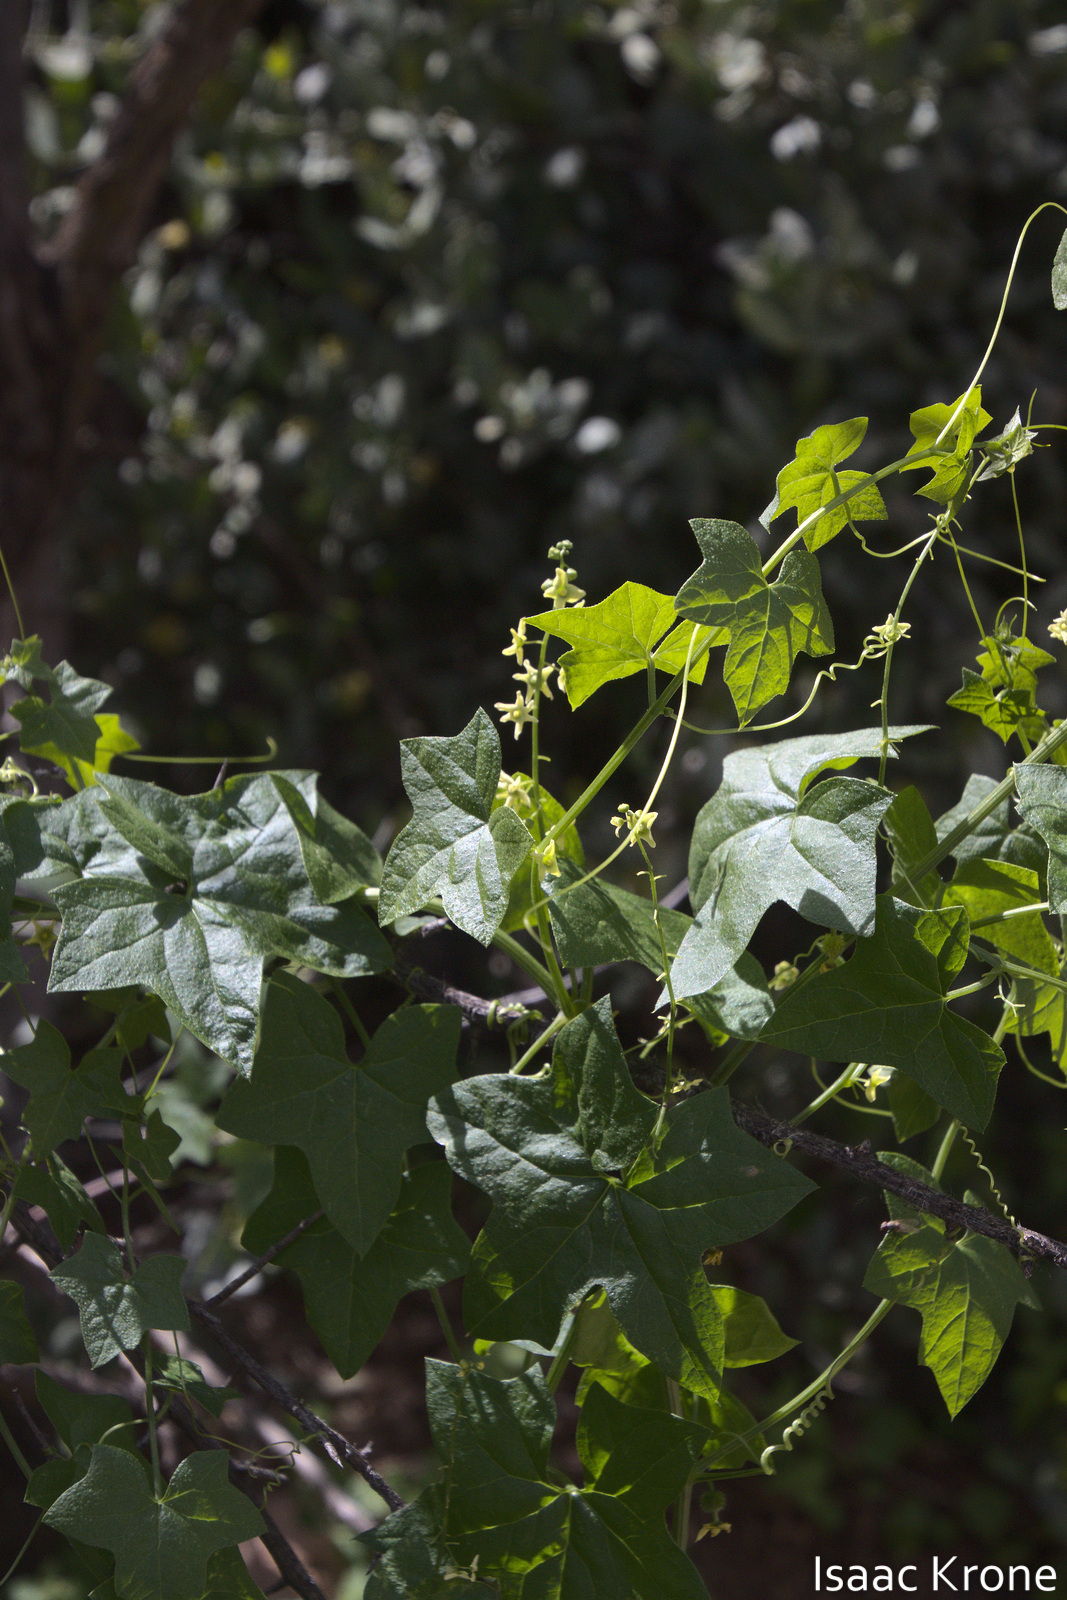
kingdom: Plantae
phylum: Tracheophyta
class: Magnoliopsida
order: Cucurbitales
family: Cucurbitaceae
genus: Marah
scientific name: Marah gilensis
